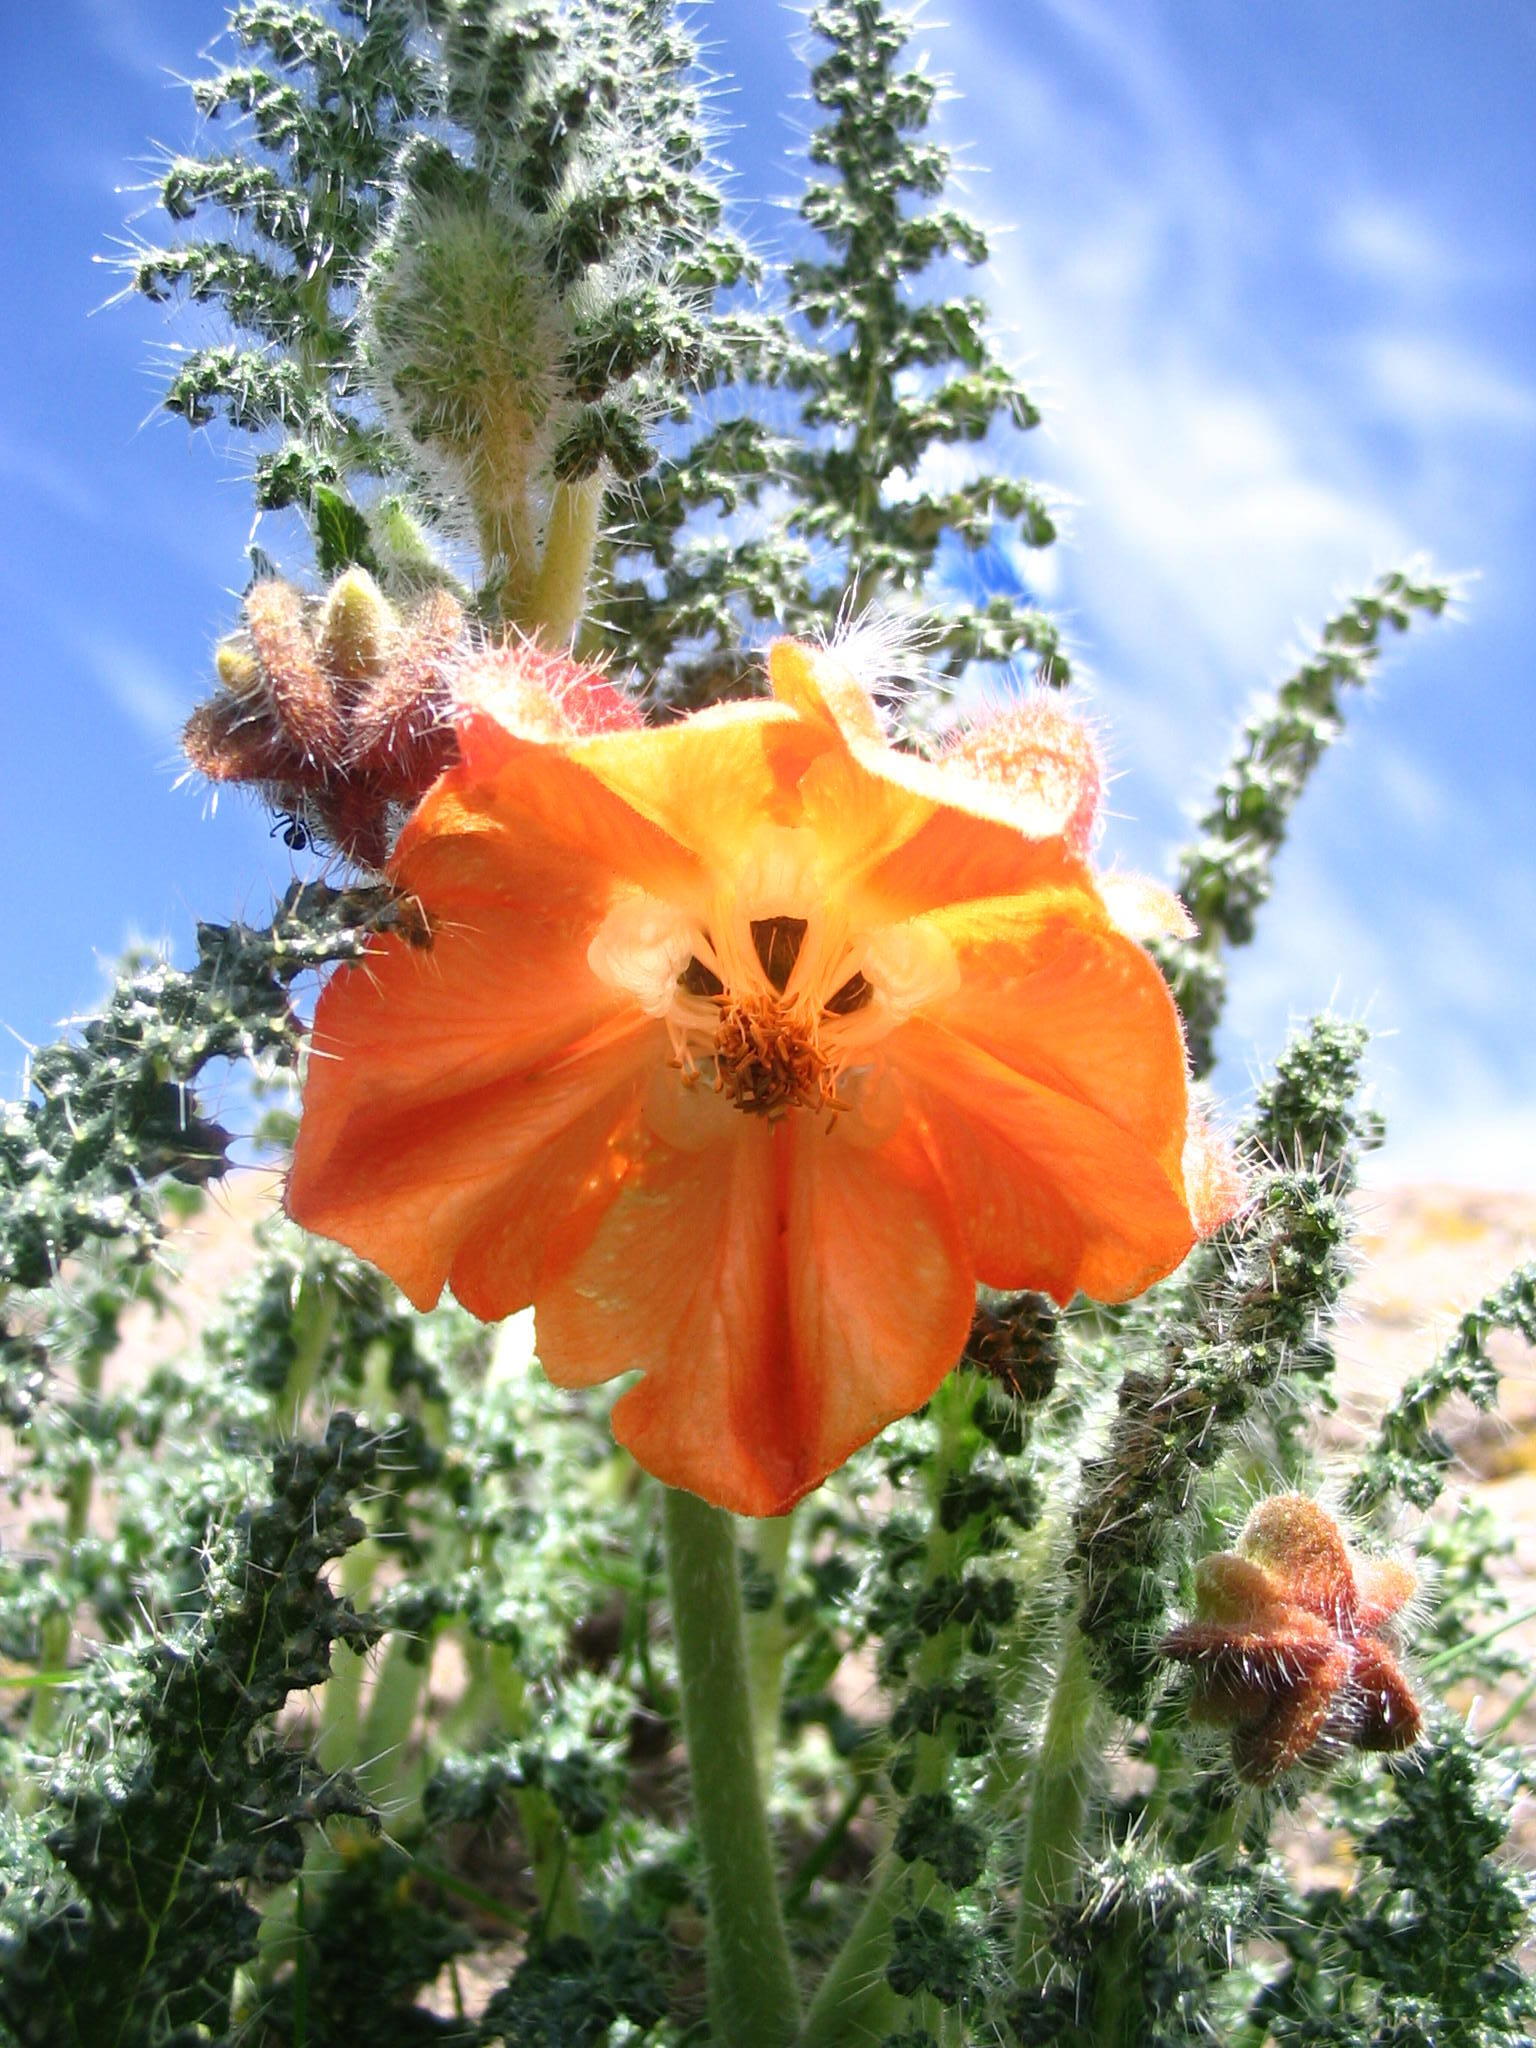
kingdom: Plantae
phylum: Tracheophyta
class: Magnoliopsida
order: Cornales
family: Loasaceae
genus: Caiophora
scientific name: Caiophora pentlandii
